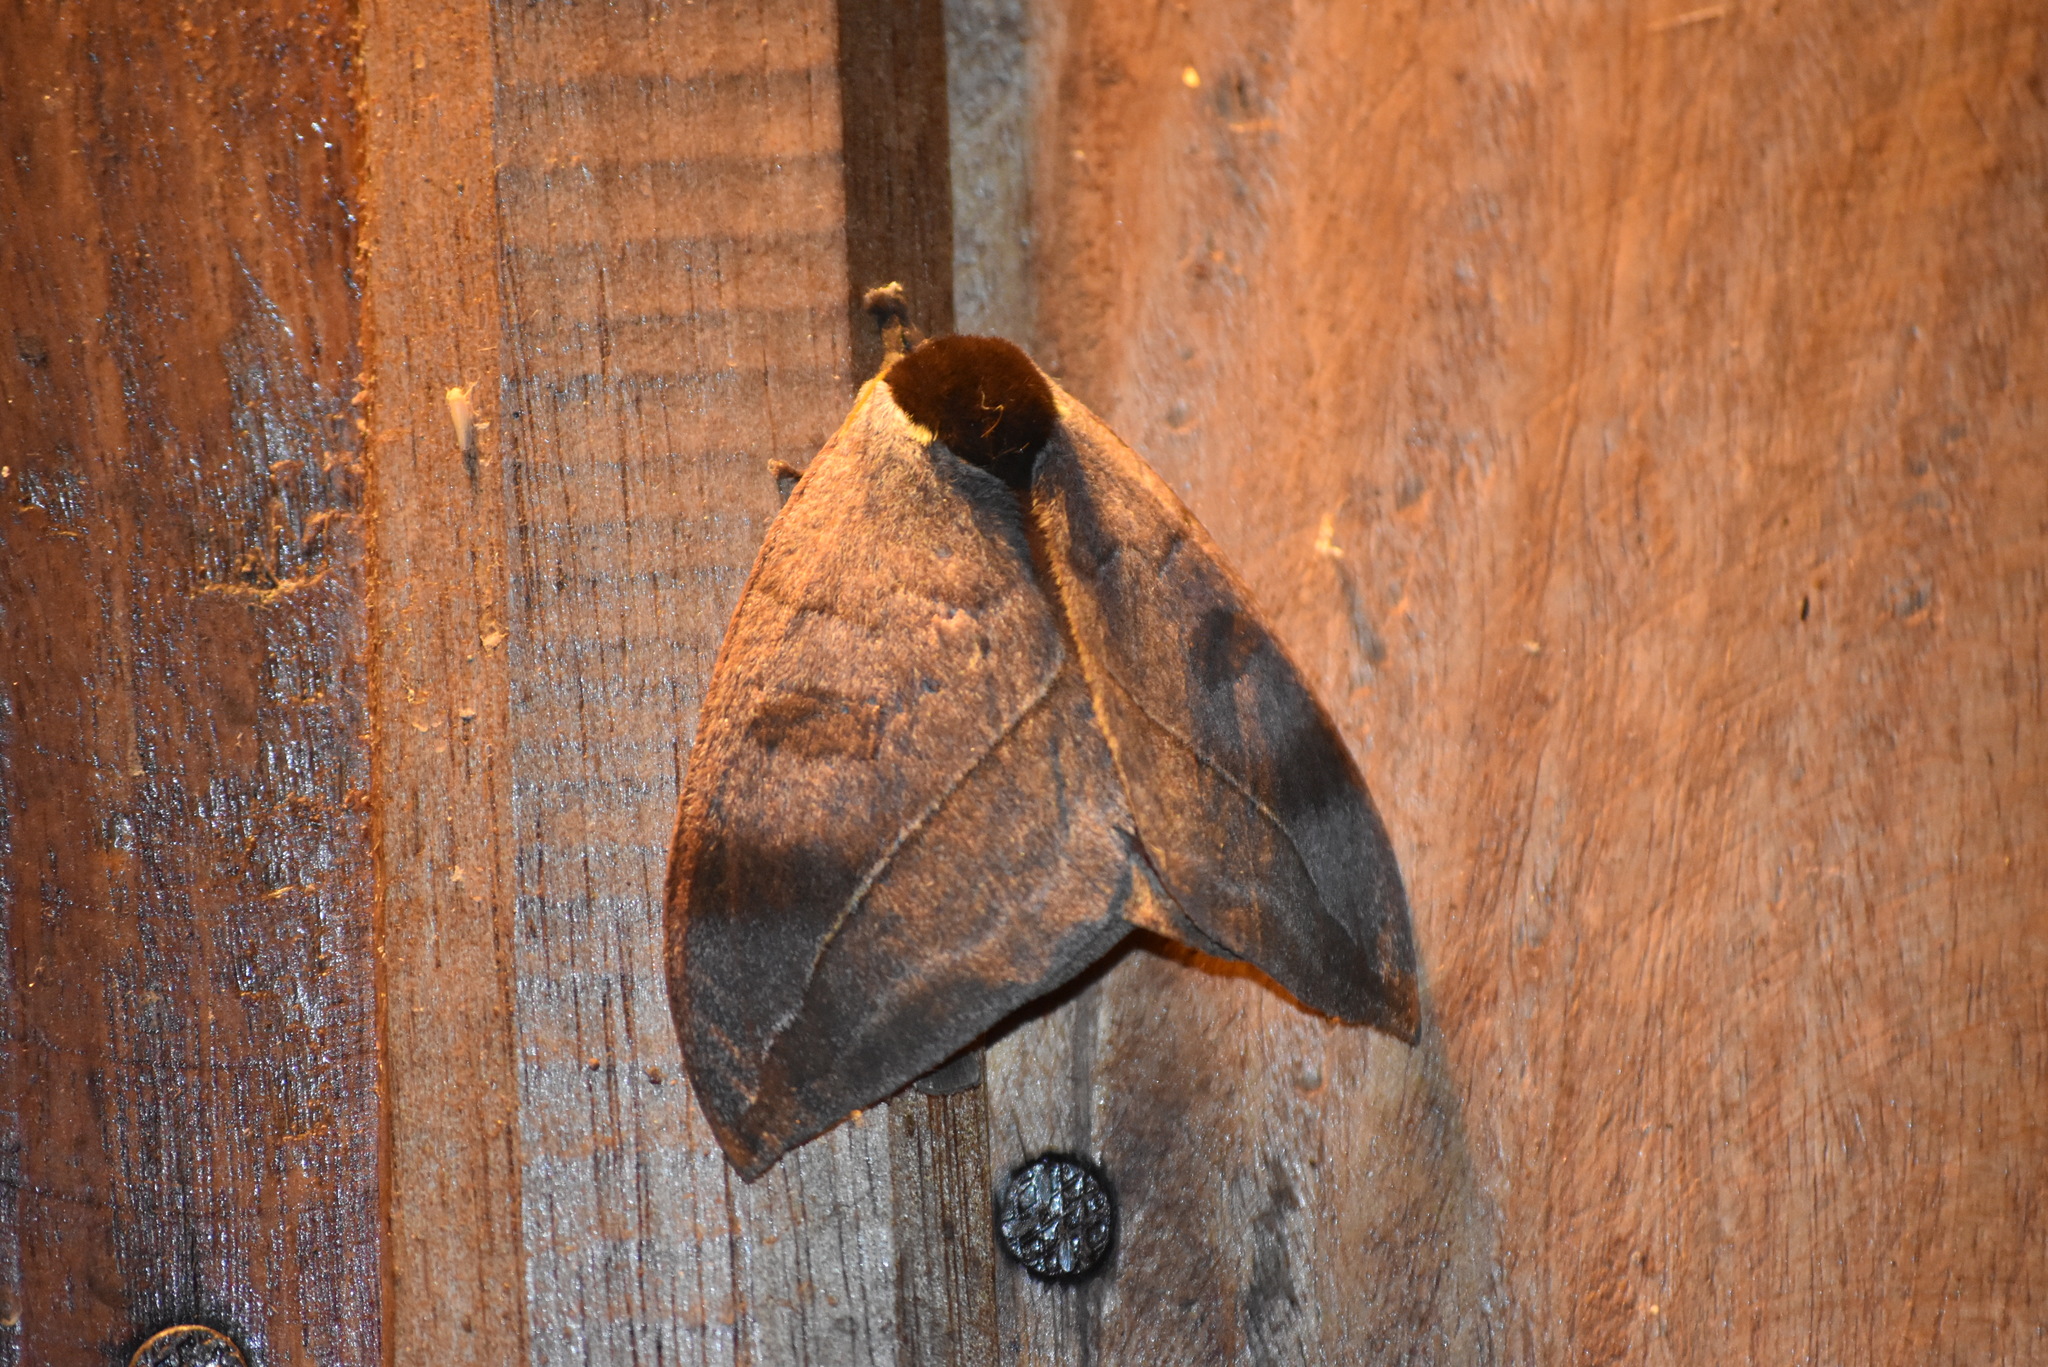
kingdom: Animalia
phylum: Arthropoda
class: Insecta
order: Lepidoptera
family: Saturniidae
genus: Automeris
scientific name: Automeris illustris
